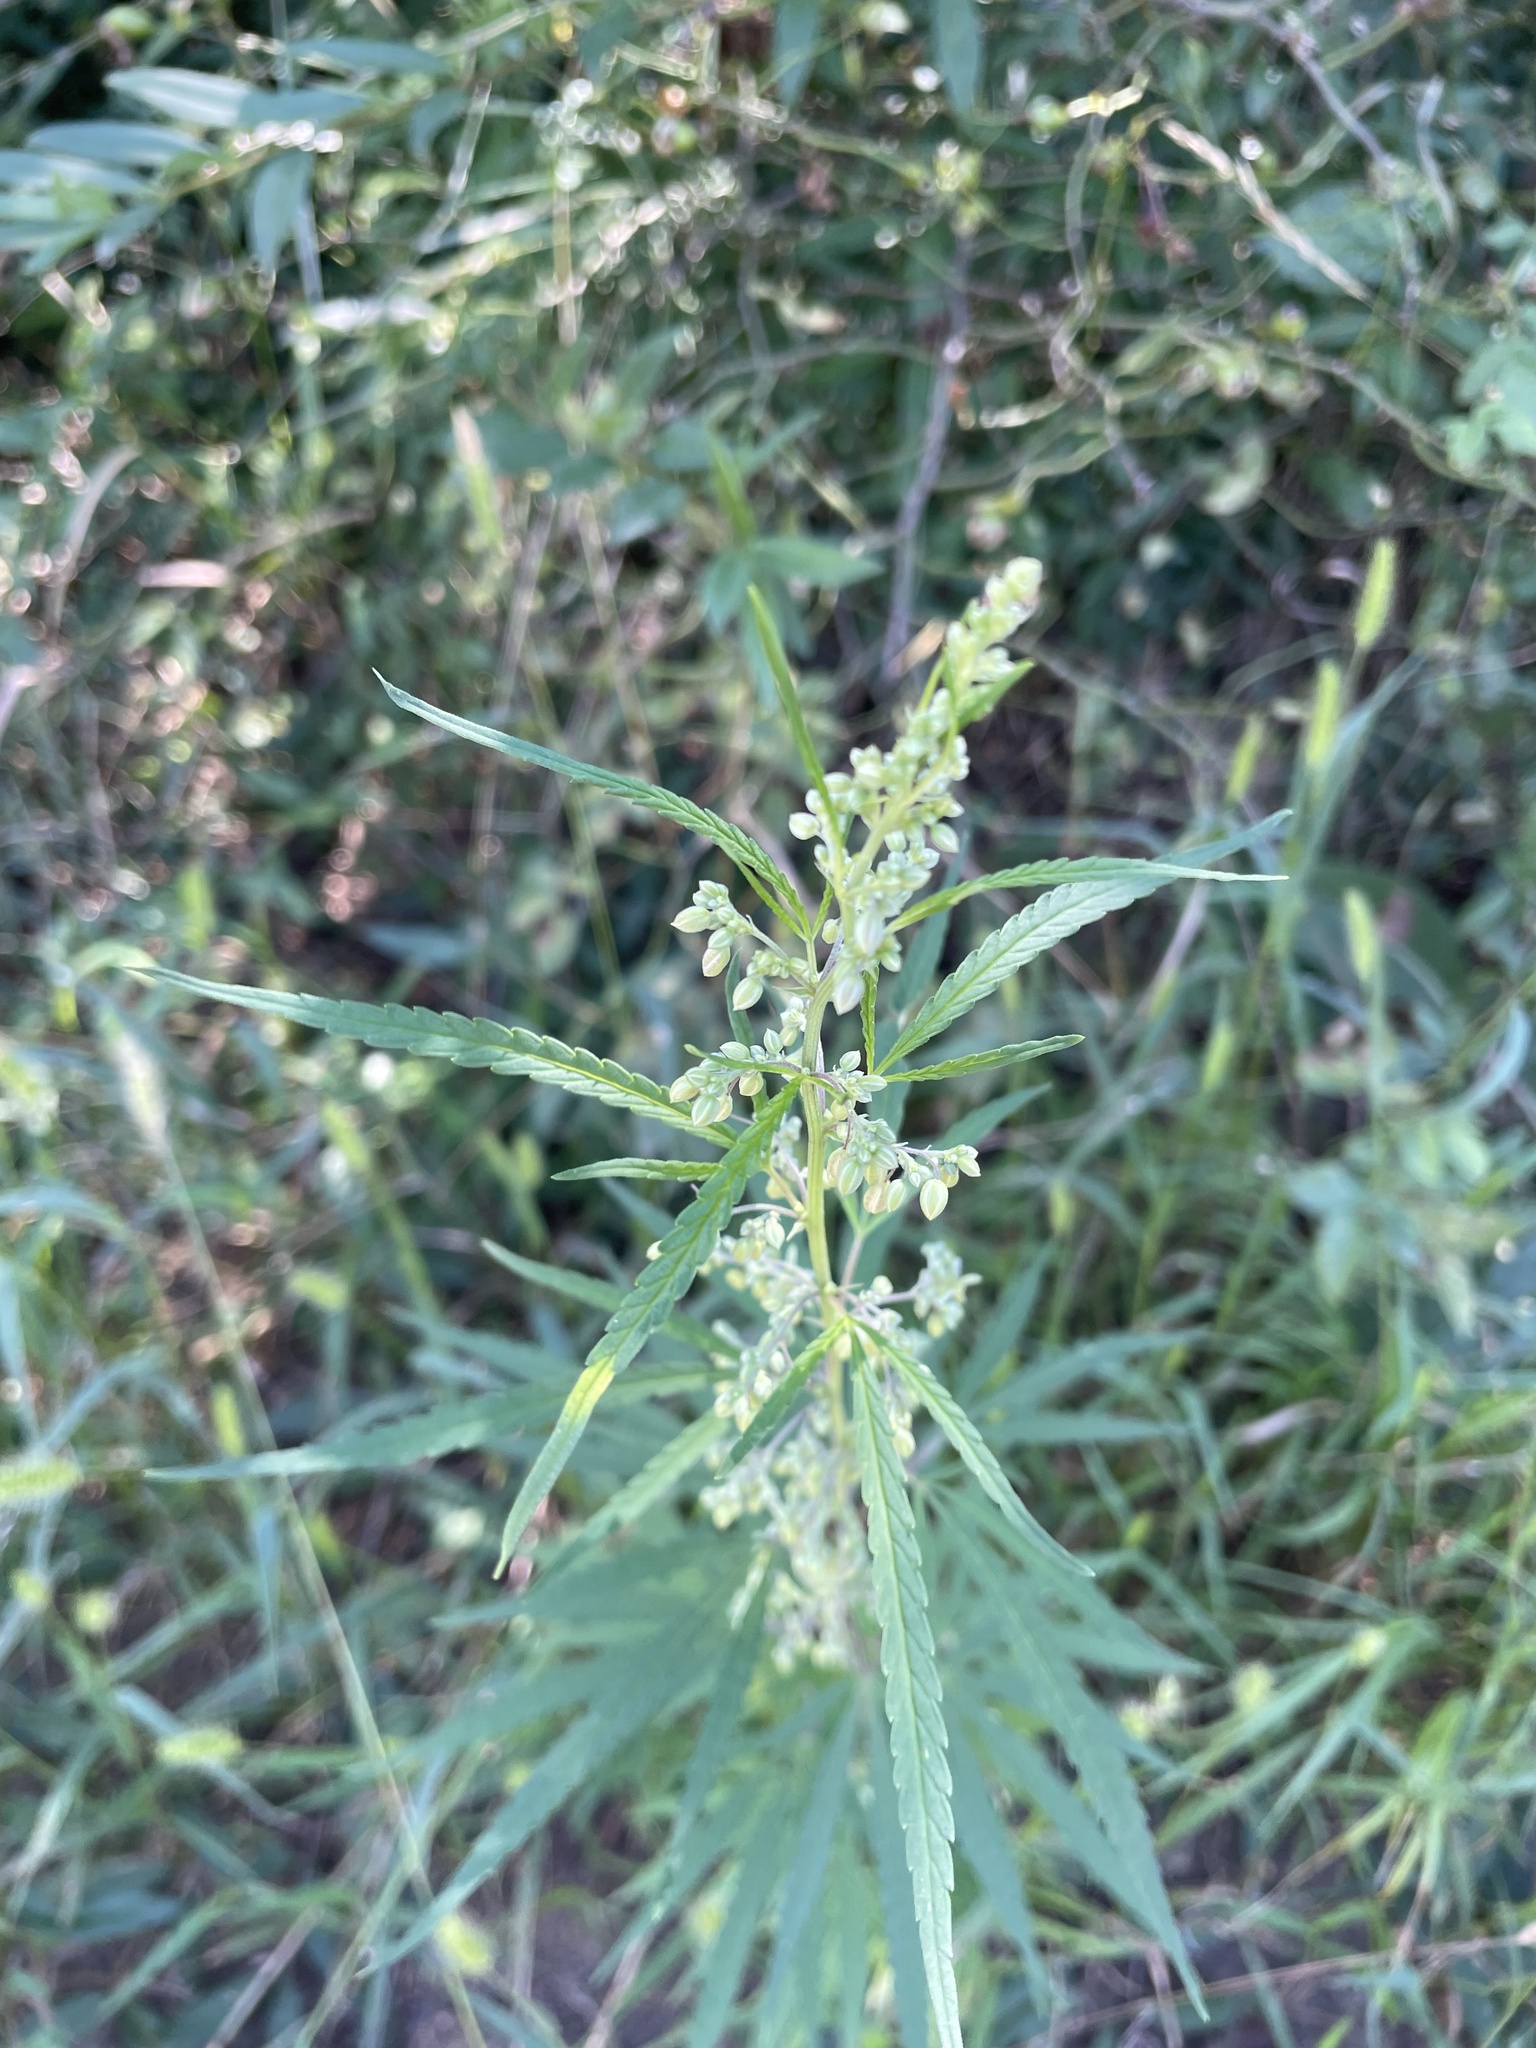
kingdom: Plantae
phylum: Tracheophyta
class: Magnoliopsida
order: Rosales
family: Cannabaceae
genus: Cannabis
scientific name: Cannabis sativa
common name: Hemp
